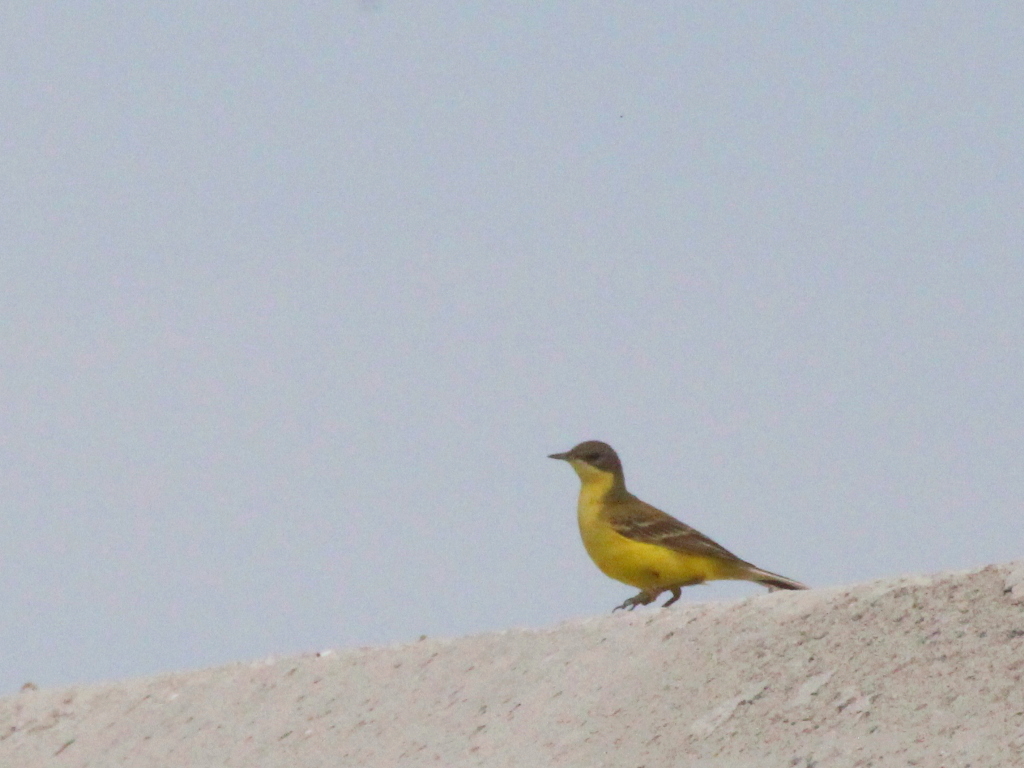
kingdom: Animalia
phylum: Chordata
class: Aves
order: Passeriformes
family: Motacillidae
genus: Motacilla
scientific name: Motacilla flava
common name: Western yellow wagtail
